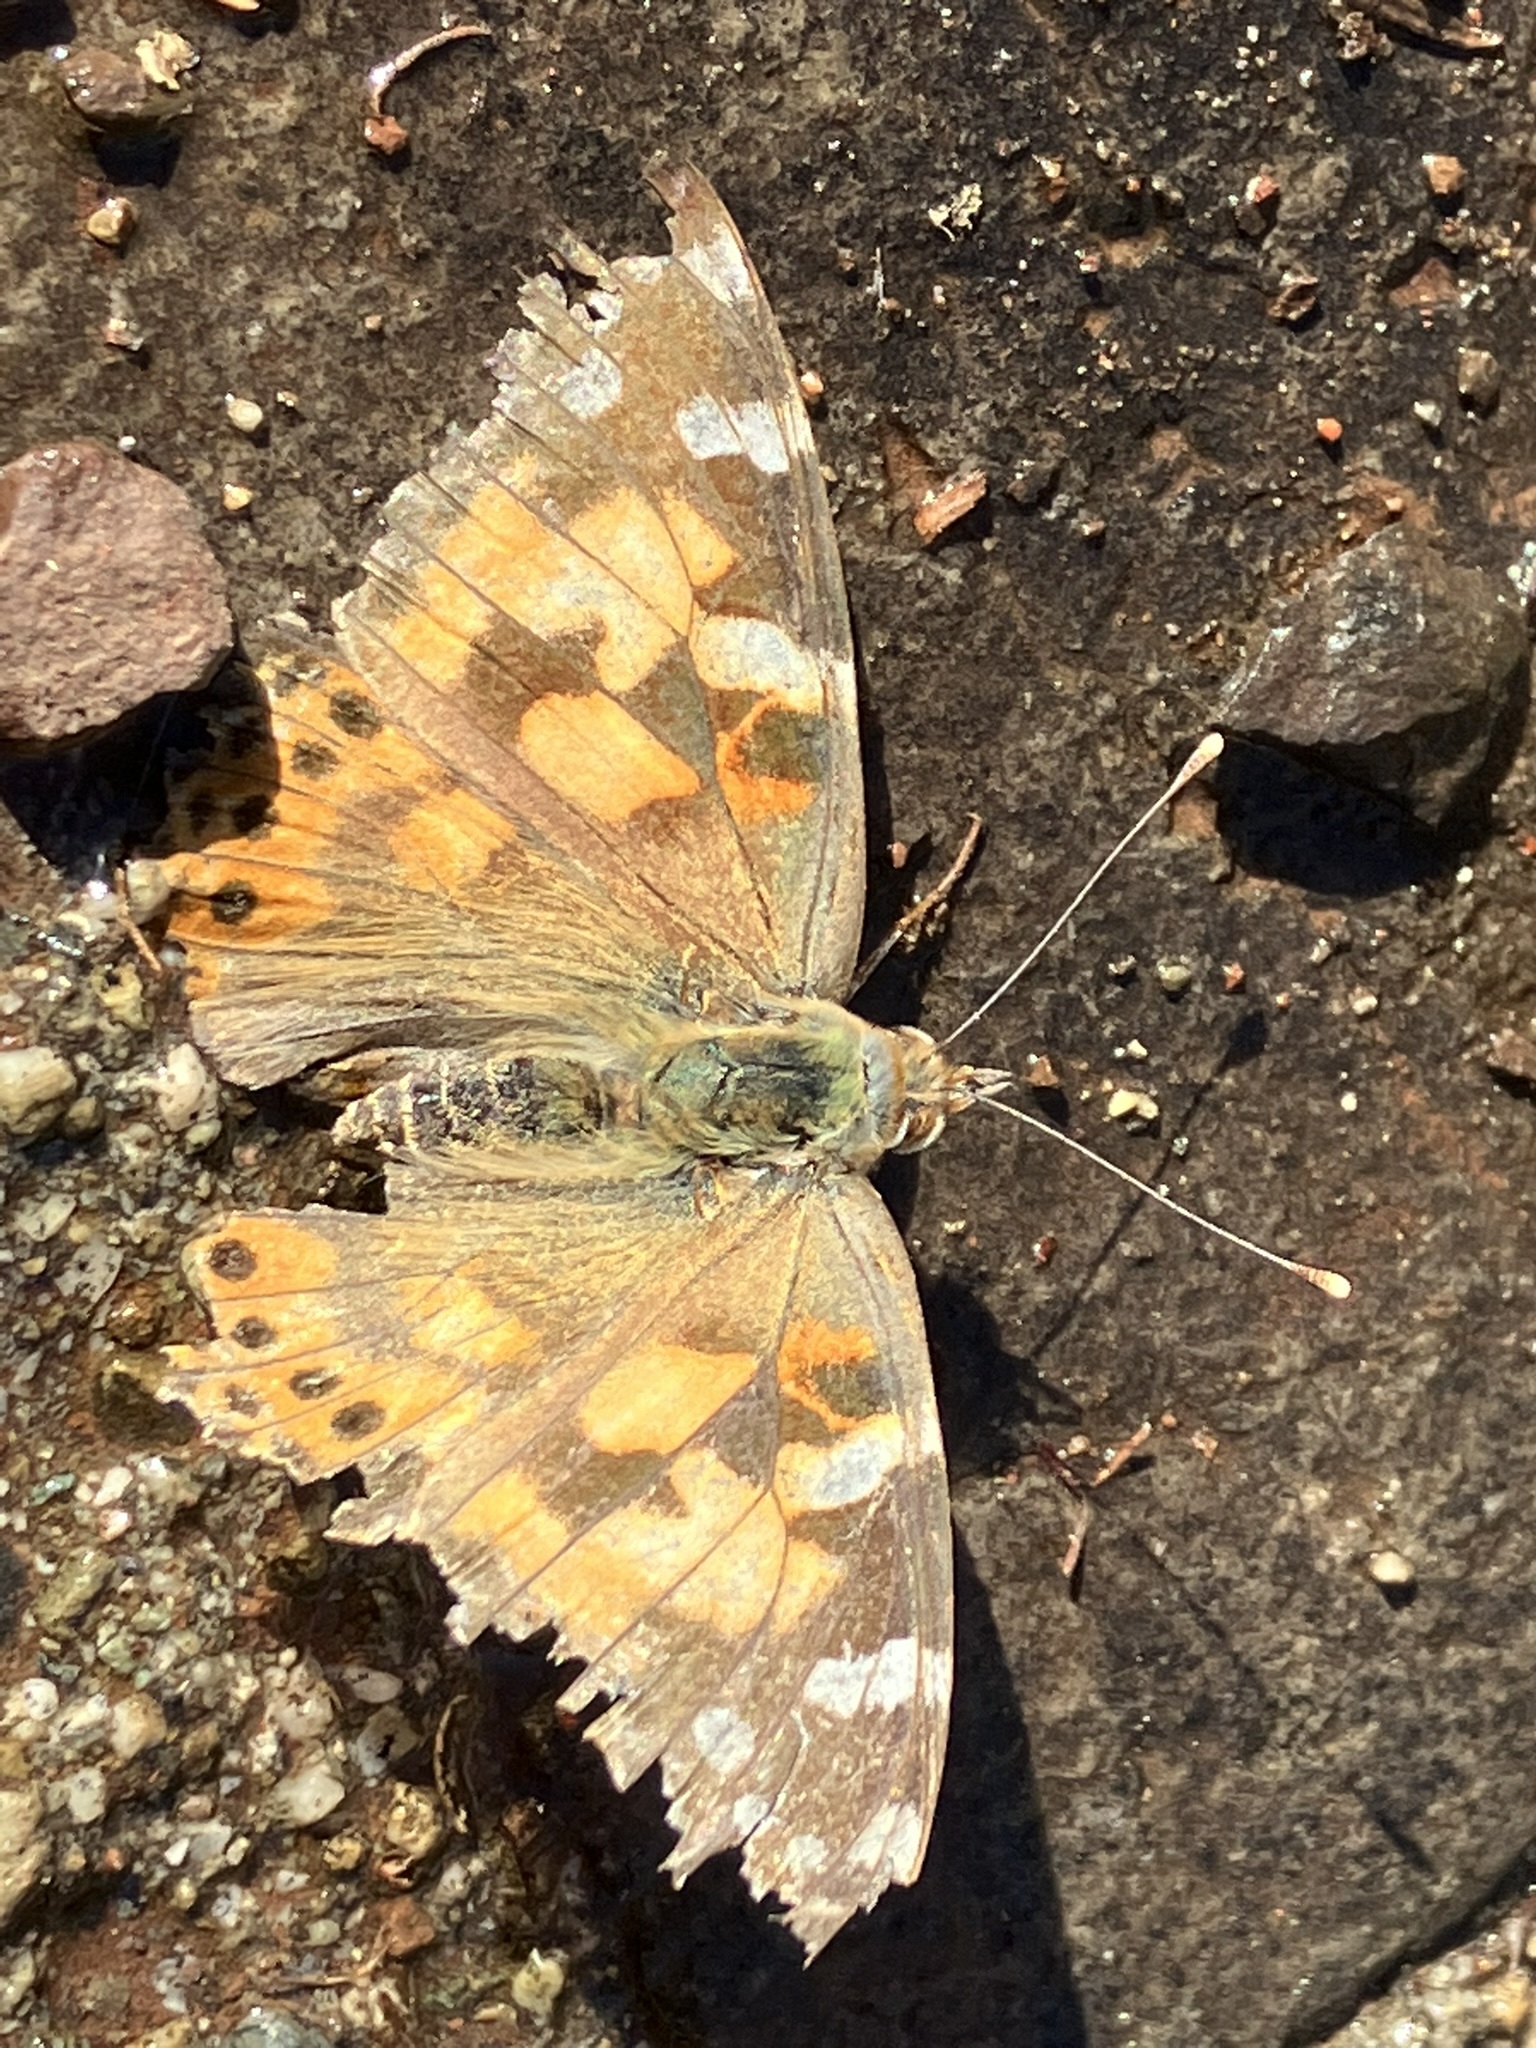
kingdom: Animalia
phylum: Arthropoda
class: Insecta
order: Lepidoptera
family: Nymphalidae
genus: Vanessa
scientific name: Vanessa cardui
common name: Painted lady
